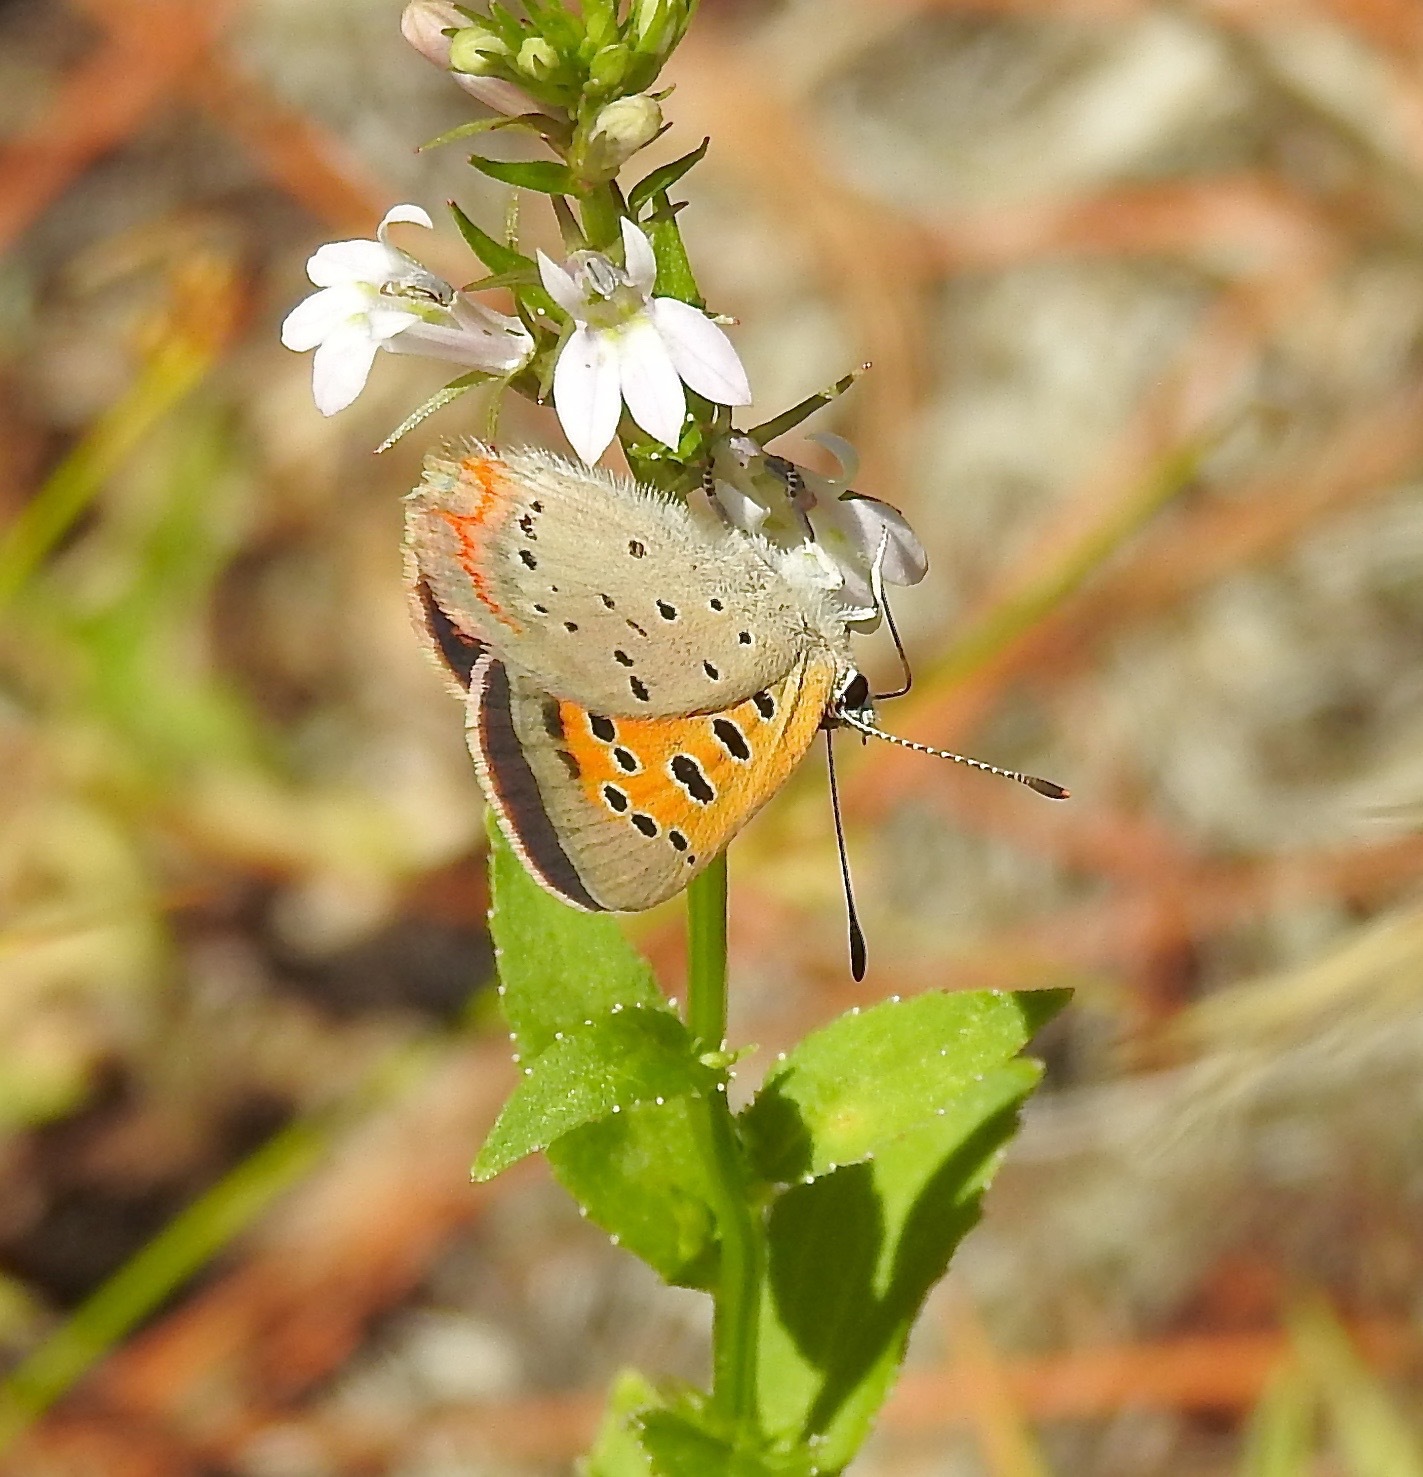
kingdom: Animalia
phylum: Arthropoda
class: Insecta
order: Lepidoptera
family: Lycaenidae
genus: Lycaena
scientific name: Lycaena hypophlaeas
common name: American copper
